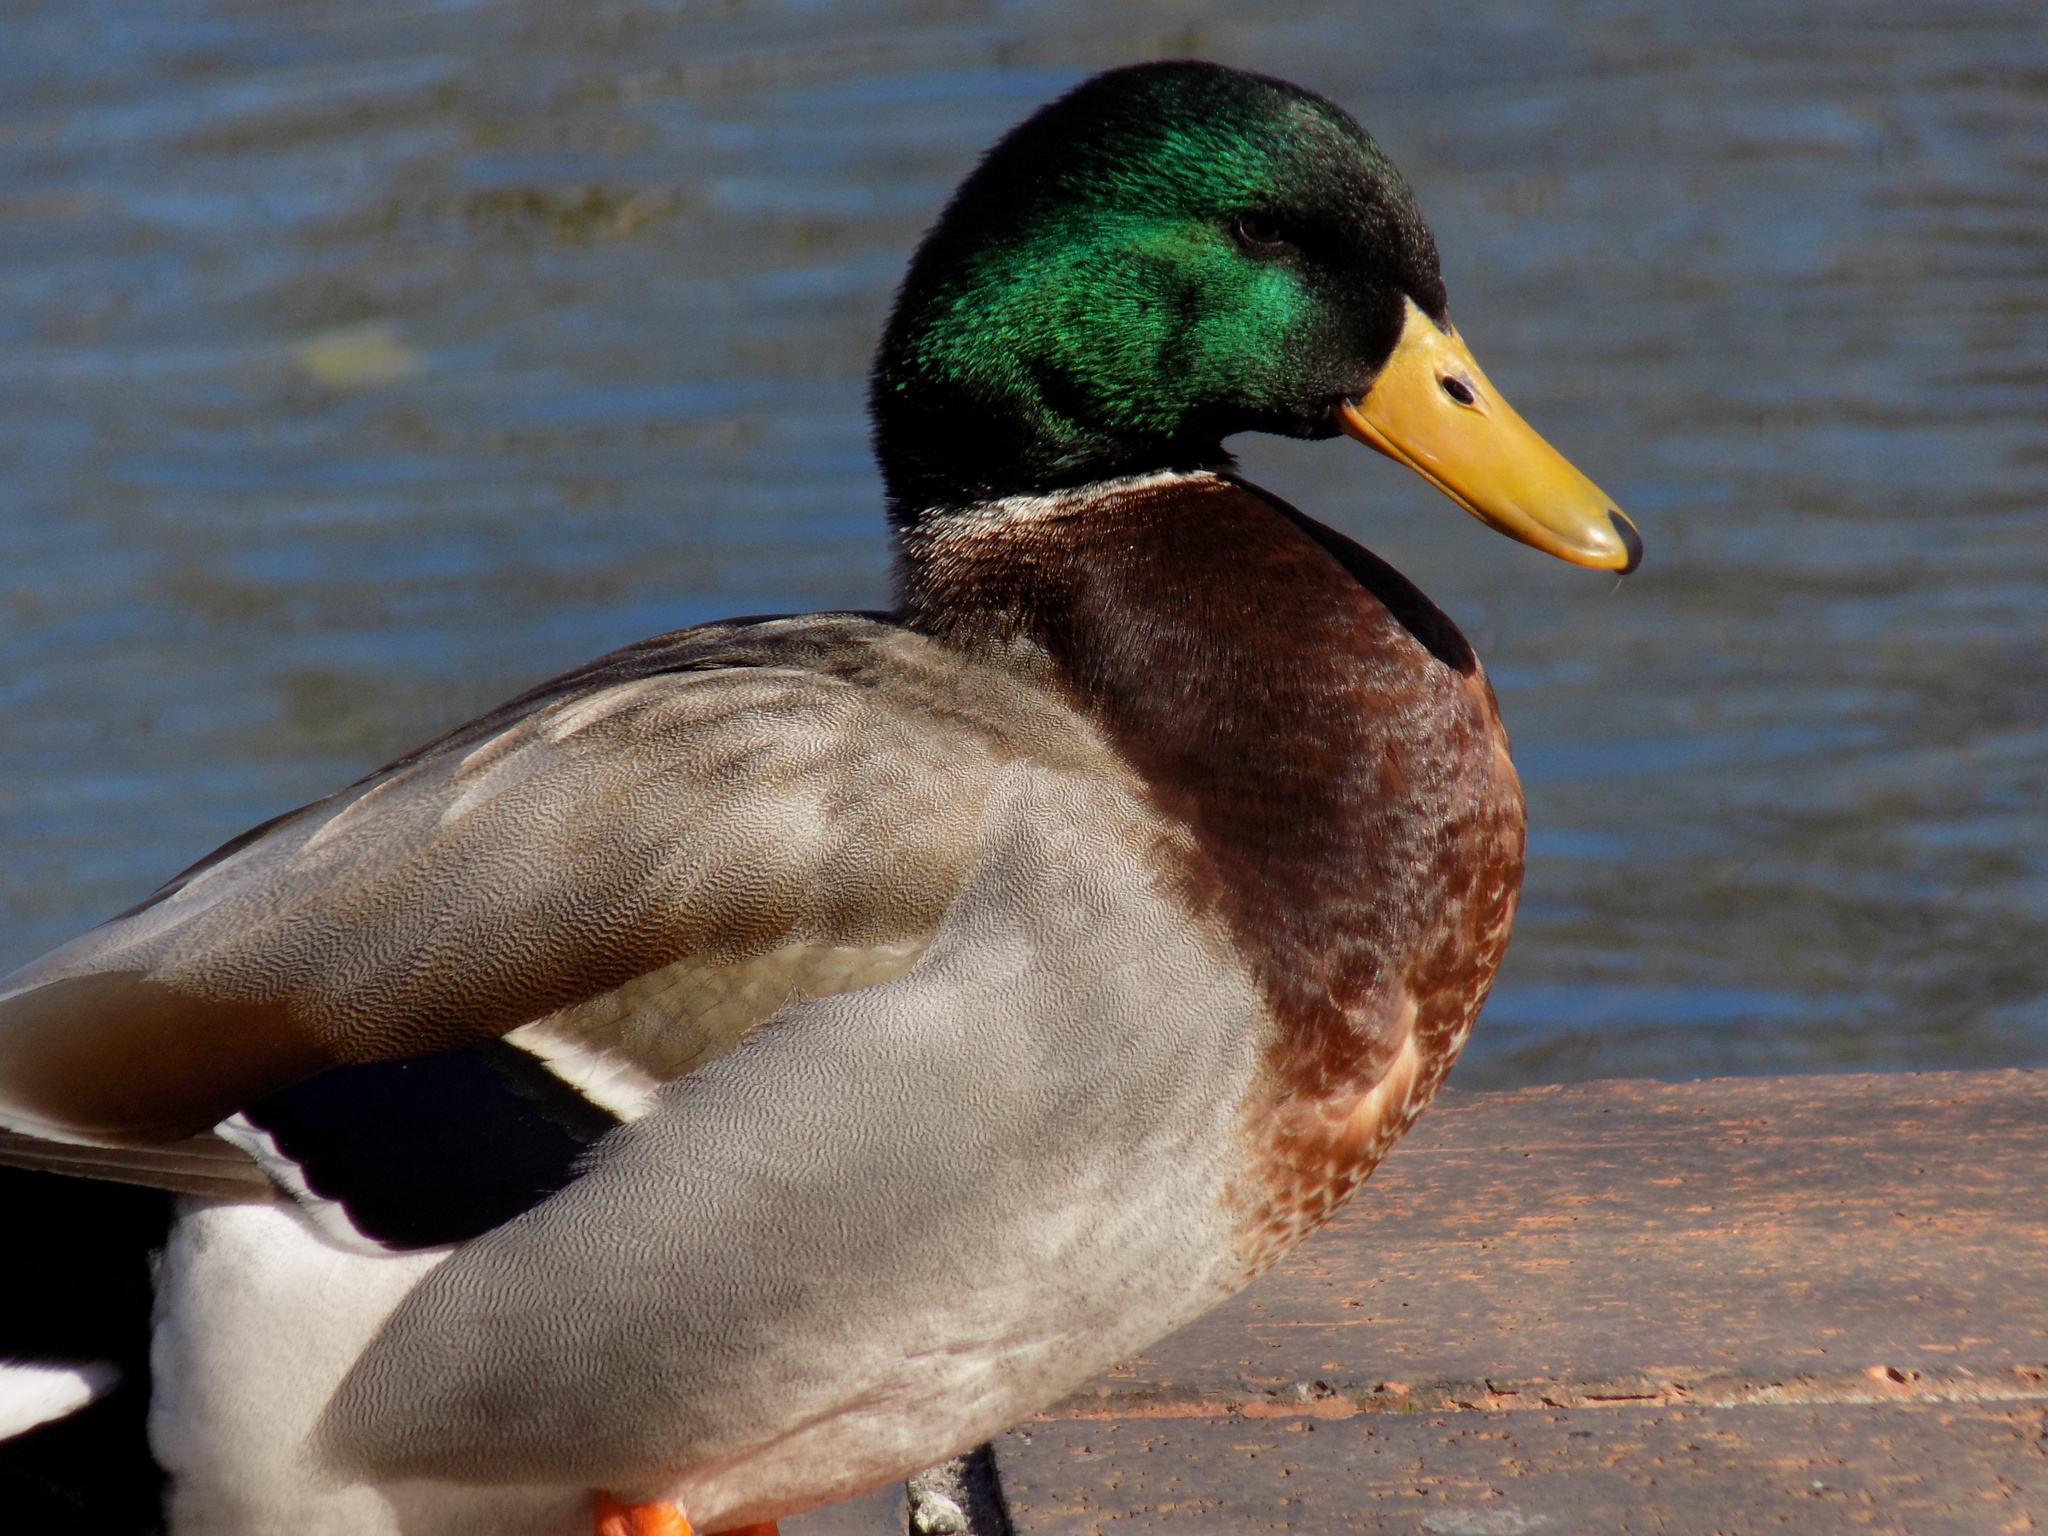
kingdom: Animalia
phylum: Chordata
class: Aves
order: Anseriformes
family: Anatidae
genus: Anas
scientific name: Anas platyrhynchos
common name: Mallard
